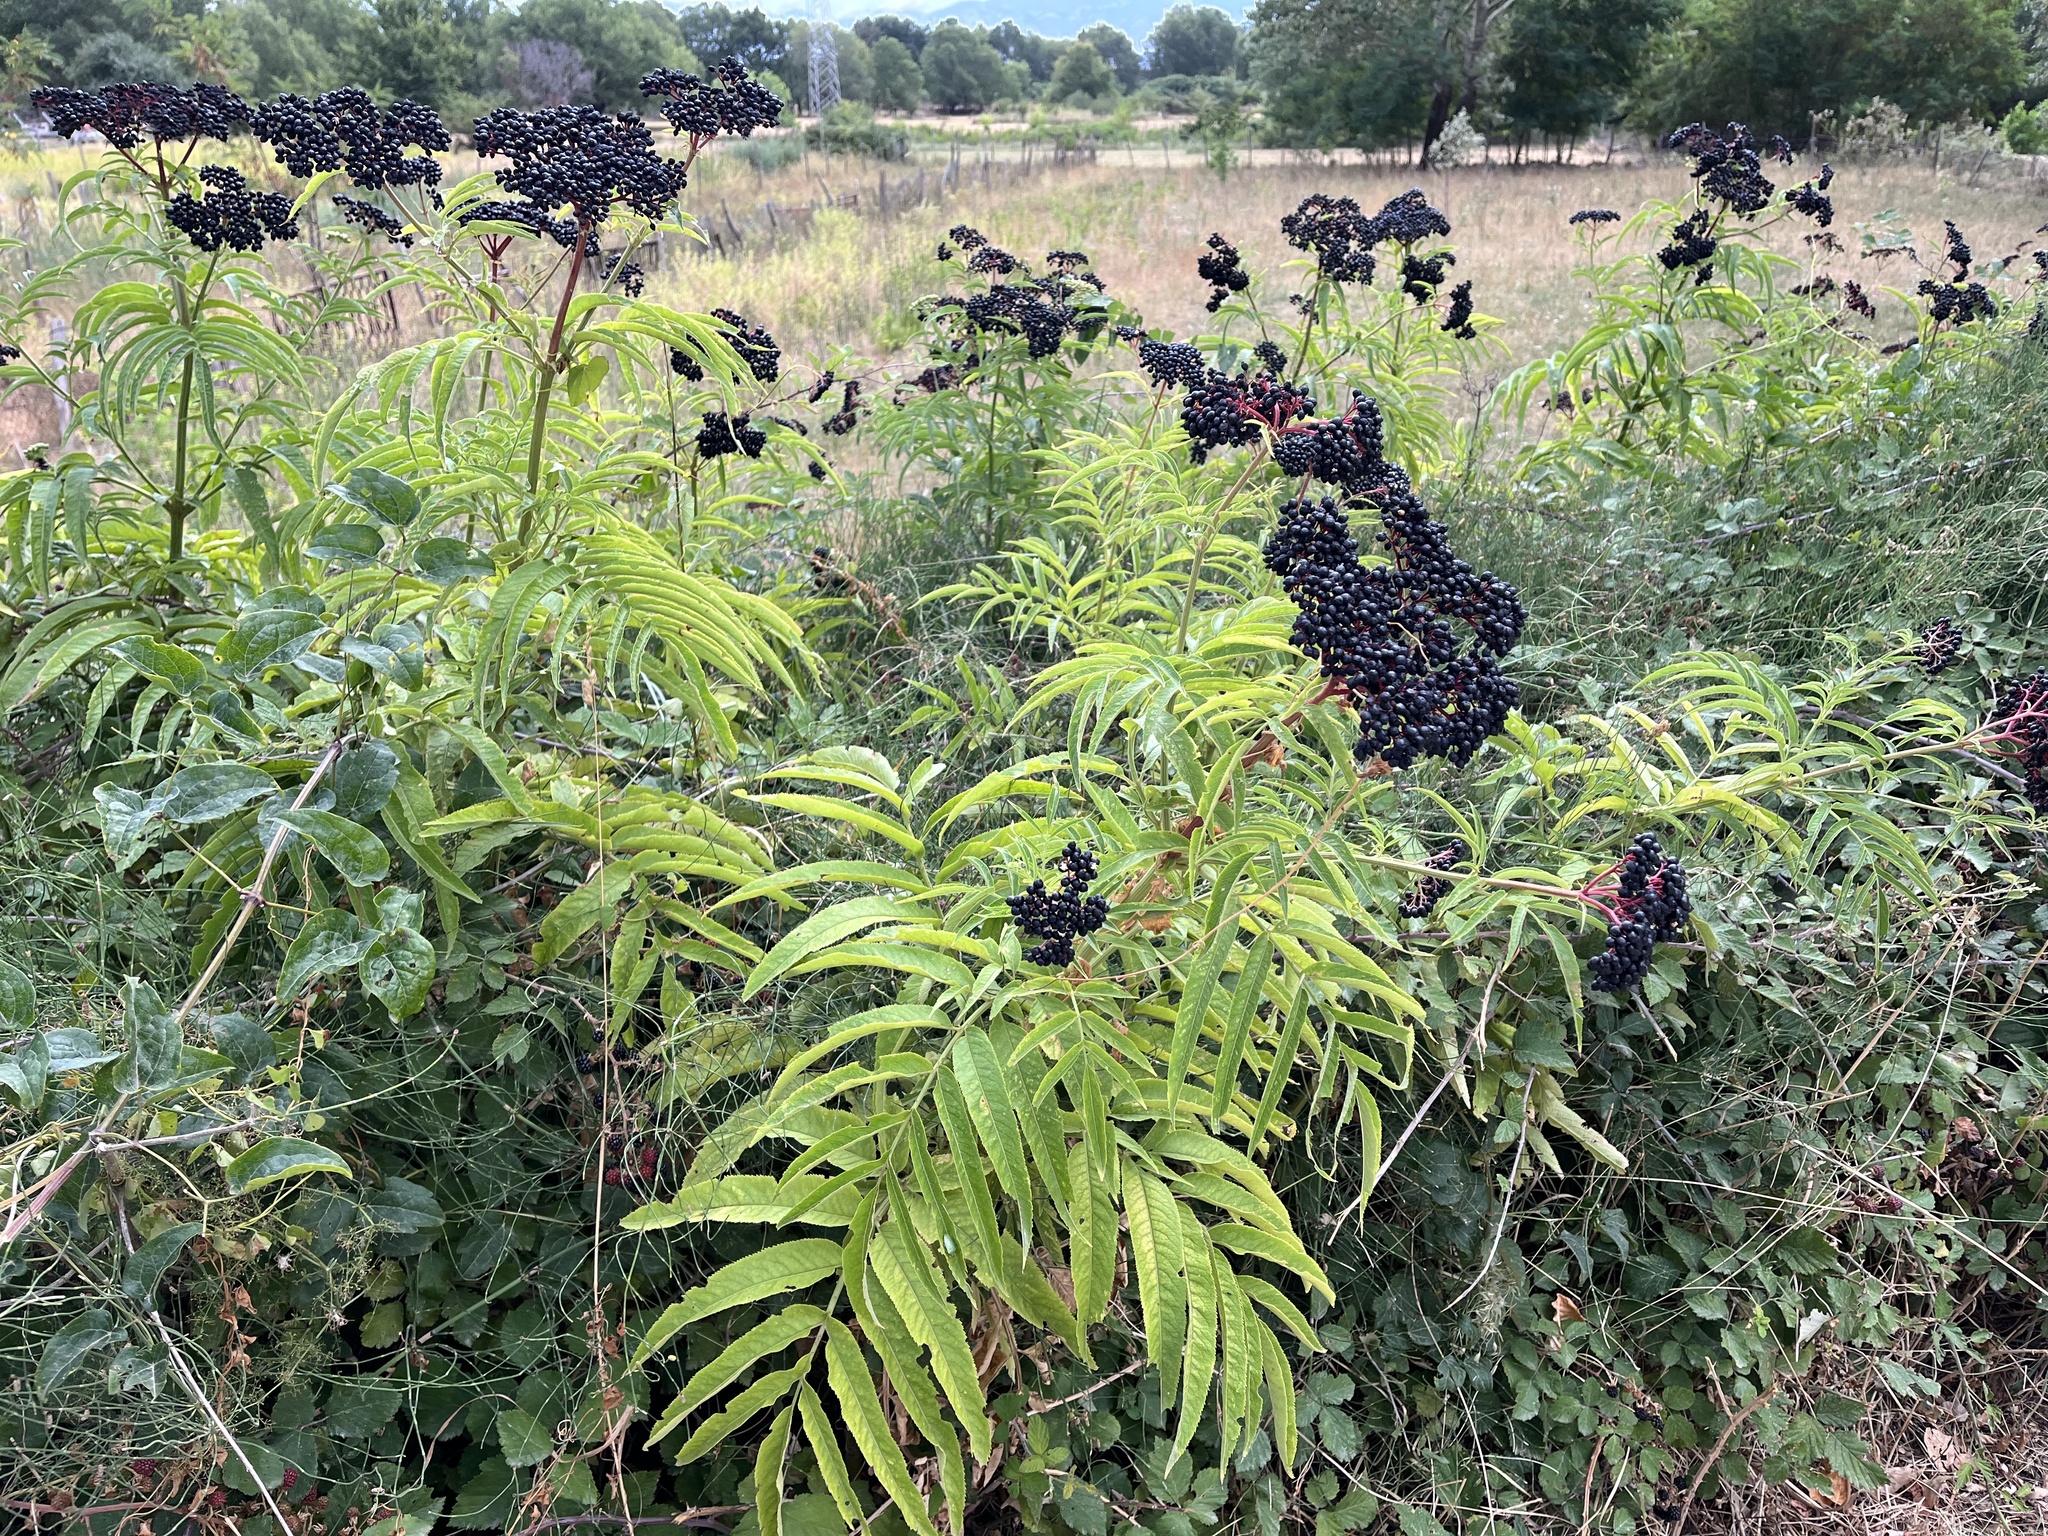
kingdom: Plantae
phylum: Tracheophyta
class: Magnoliopsida
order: Dipsacales
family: Viburnaceae
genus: Sambucus
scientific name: Sambucus ebulus
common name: Dwarf elder
